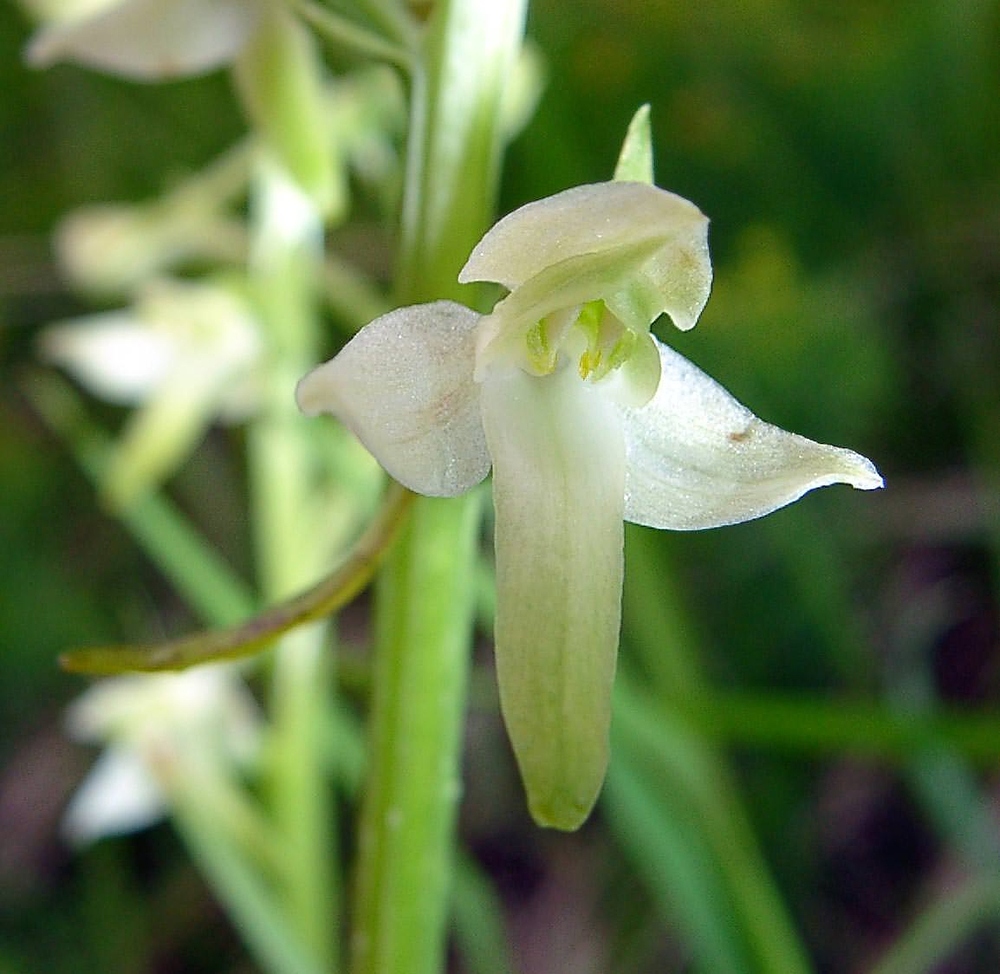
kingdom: Plantae
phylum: Tracheophyta
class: Liliopsida
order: Asparagales
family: Orchidaceae
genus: Platanthera
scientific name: Platanthera bifolia
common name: Lesser butterfly-orchid
